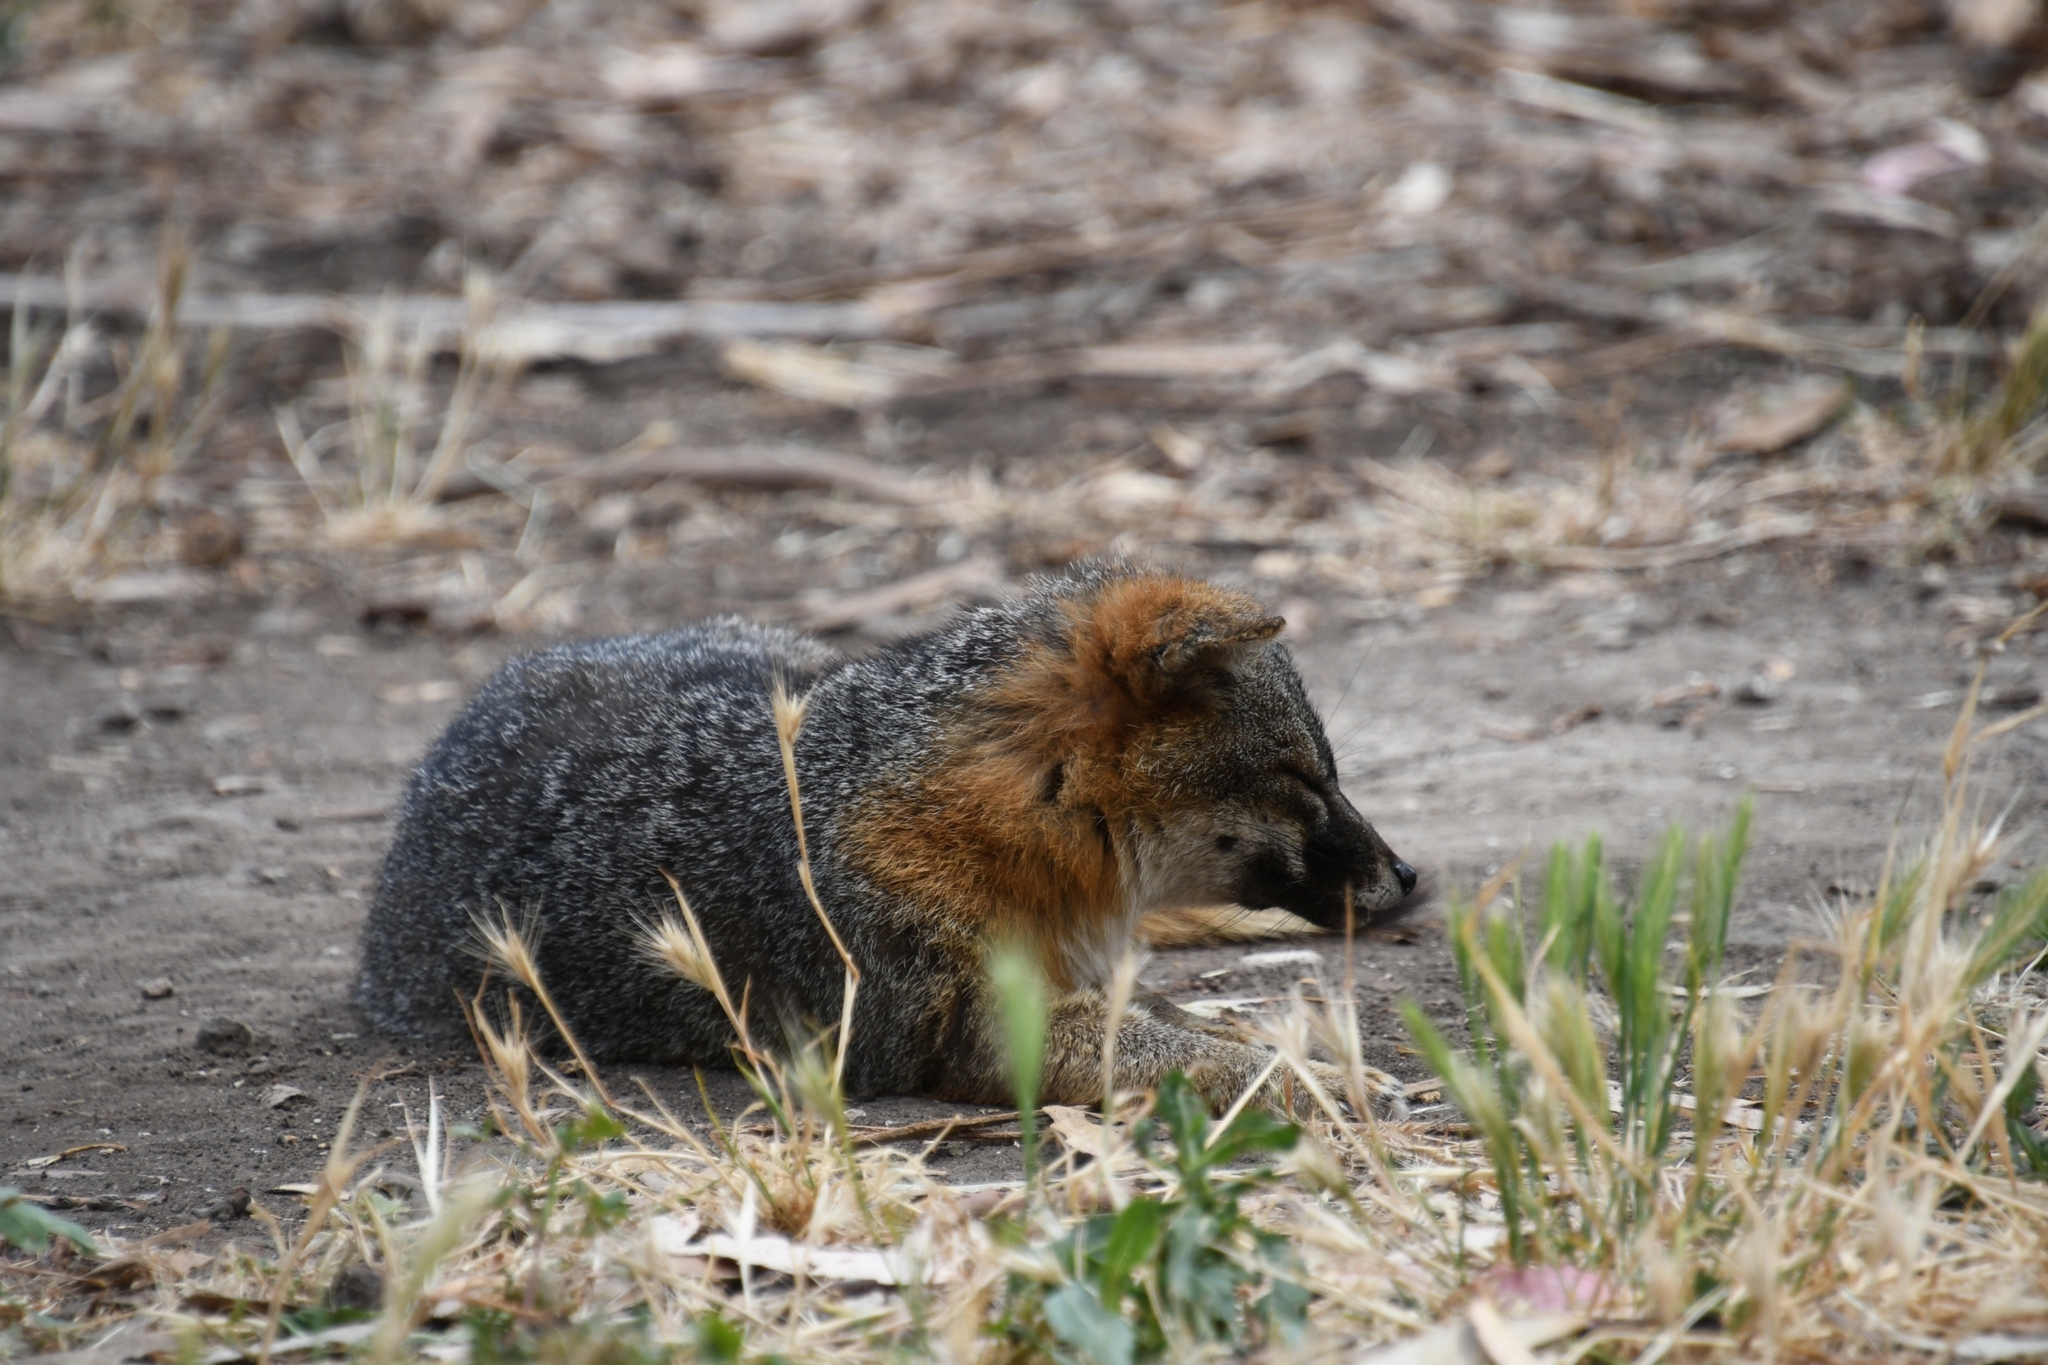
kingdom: Animalia
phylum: Chordata
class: Mammalia
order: Carnivora
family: Canidae
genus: Urocyon
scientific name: Urocyon littoralis
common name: Island gray fox
